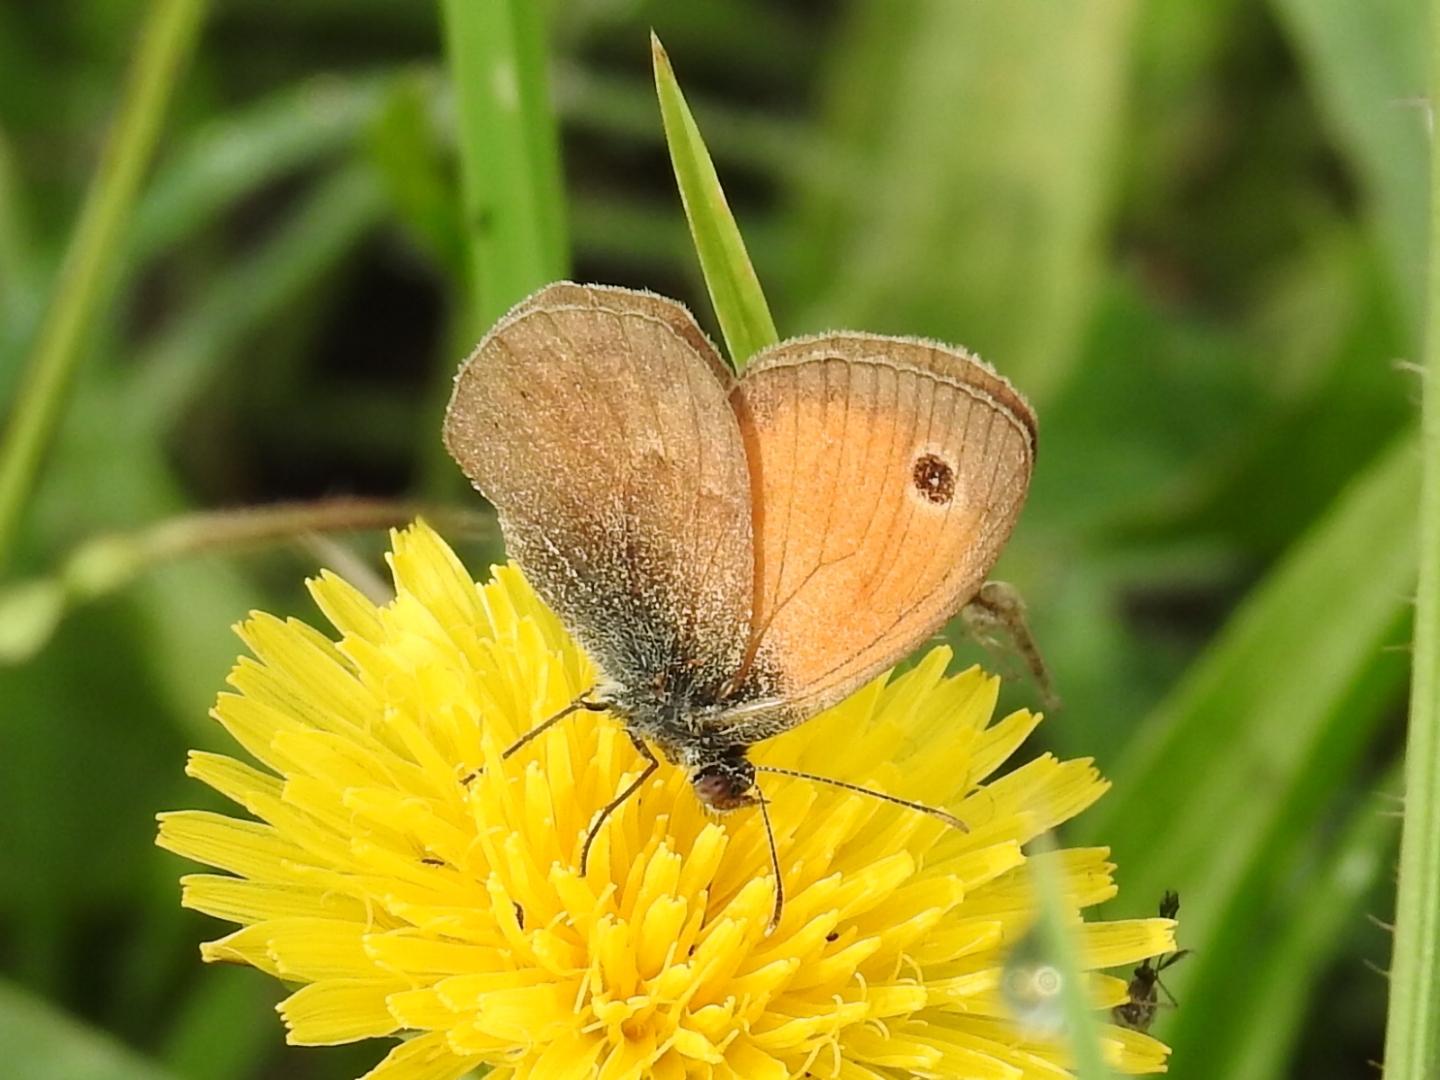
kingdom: Animalia
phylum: Arthropoda
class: Insecta
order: Lepidoptera
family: Nymphalidae
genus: Coenonympha
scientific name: Coenonympha pamphilus
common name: Small heath
